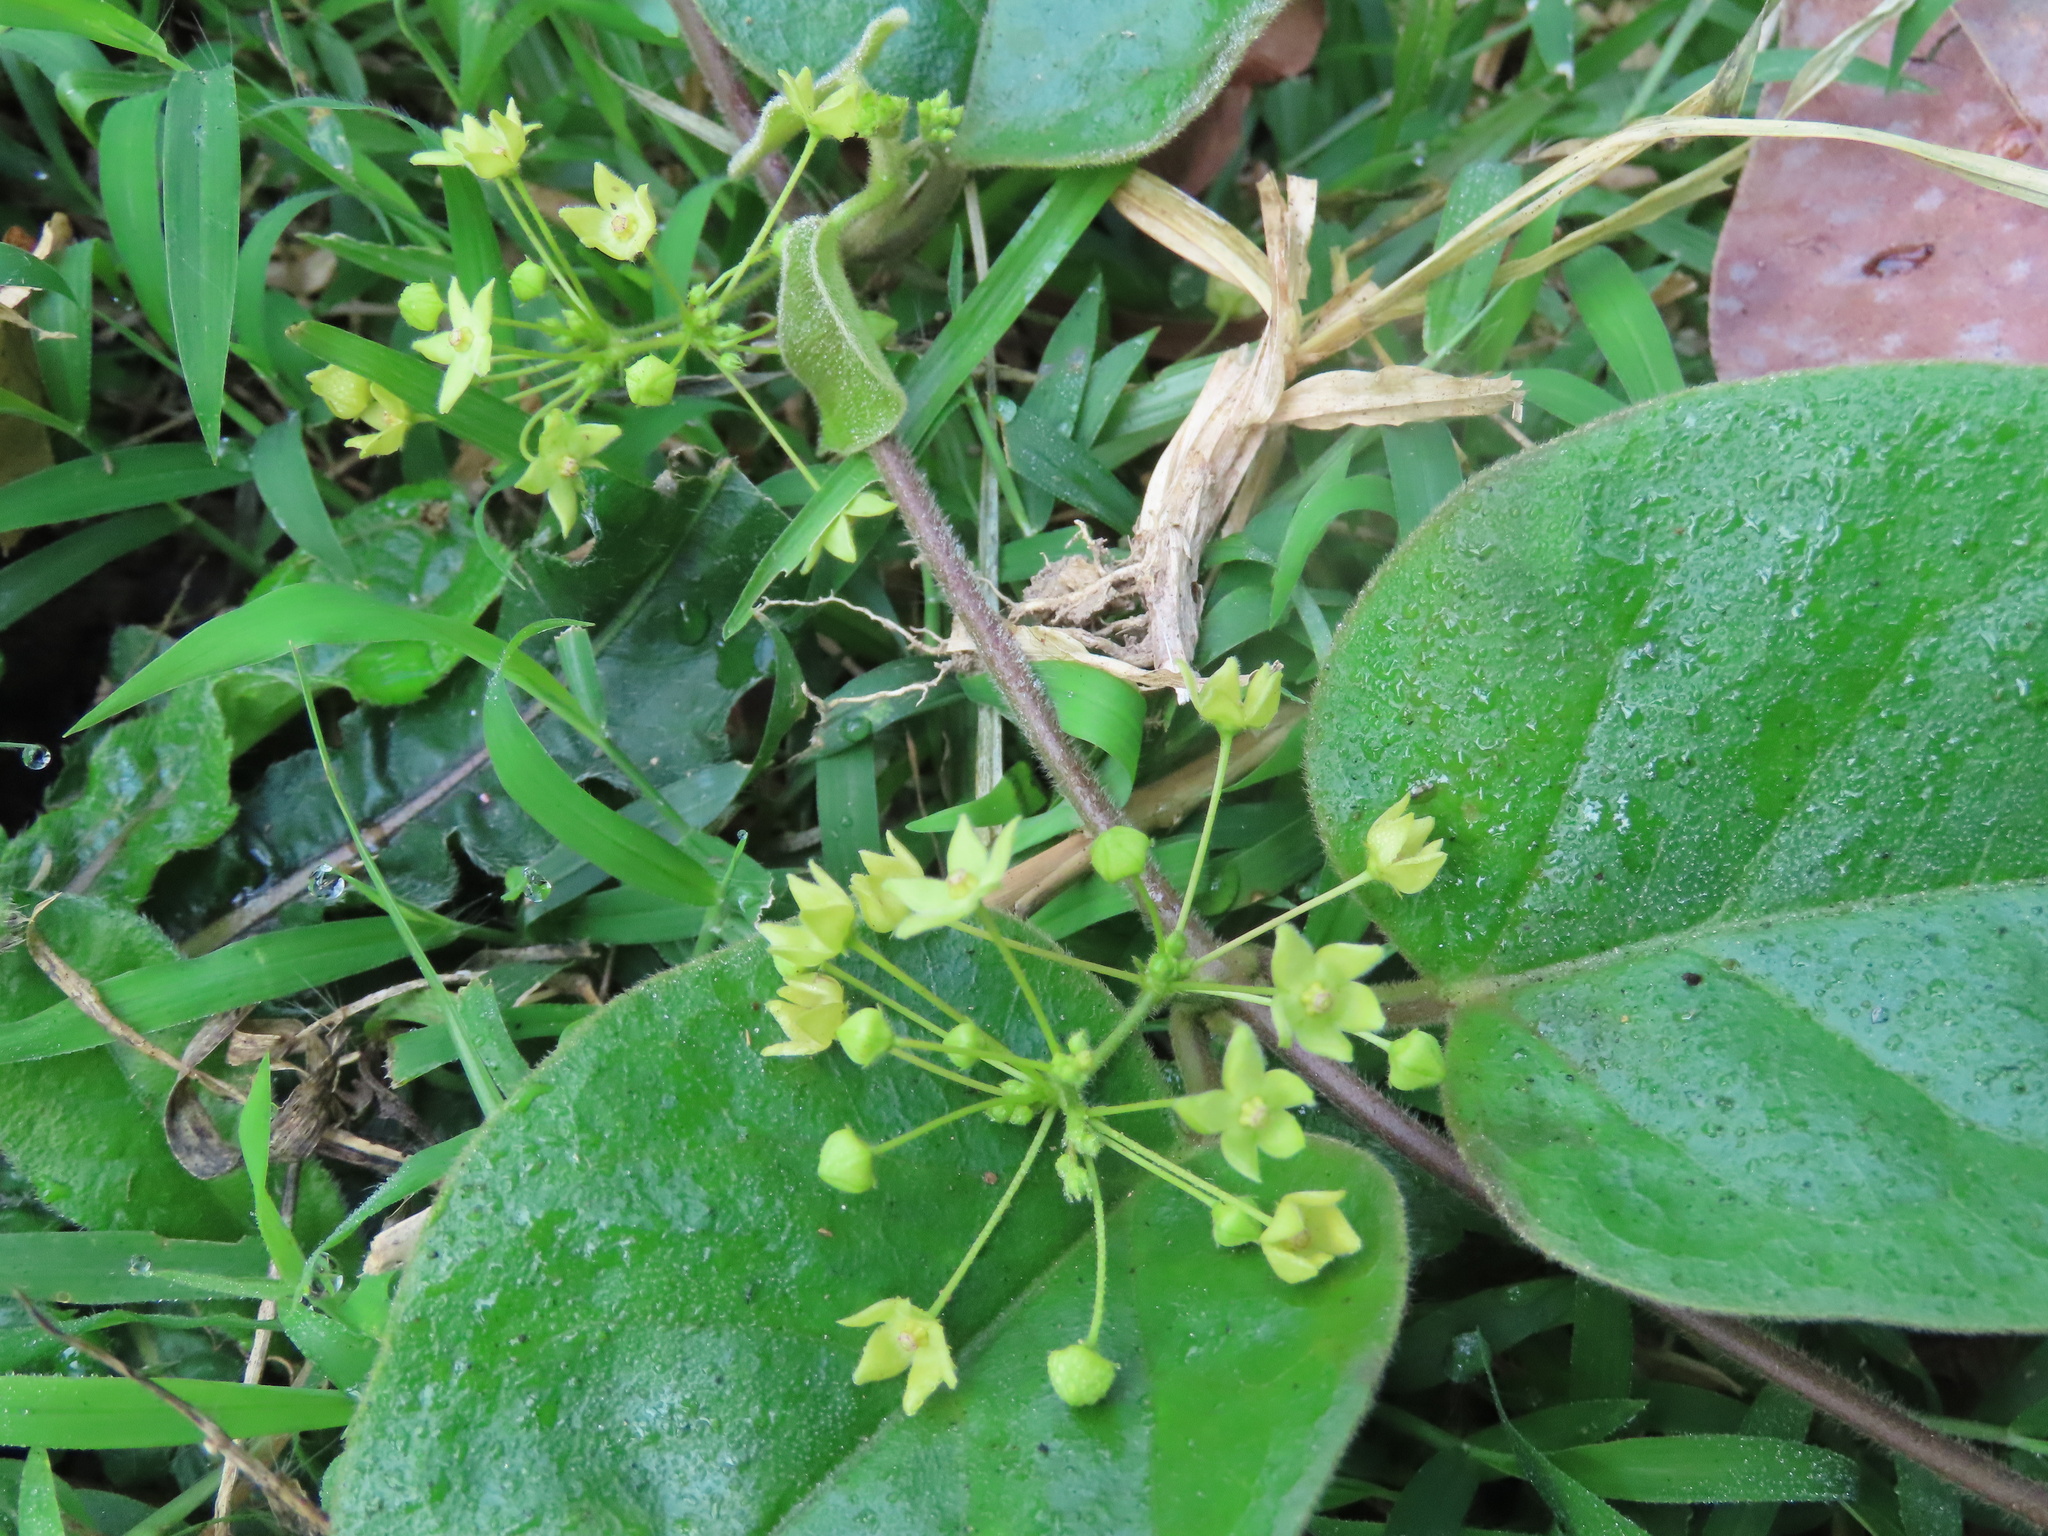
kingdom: Plantae
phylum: Tracheophyta
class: Magnoliopsida
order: Gentianales
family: Apocynaceae
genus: Vincetoxicum
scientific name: Vincetoxicum hirsutum
